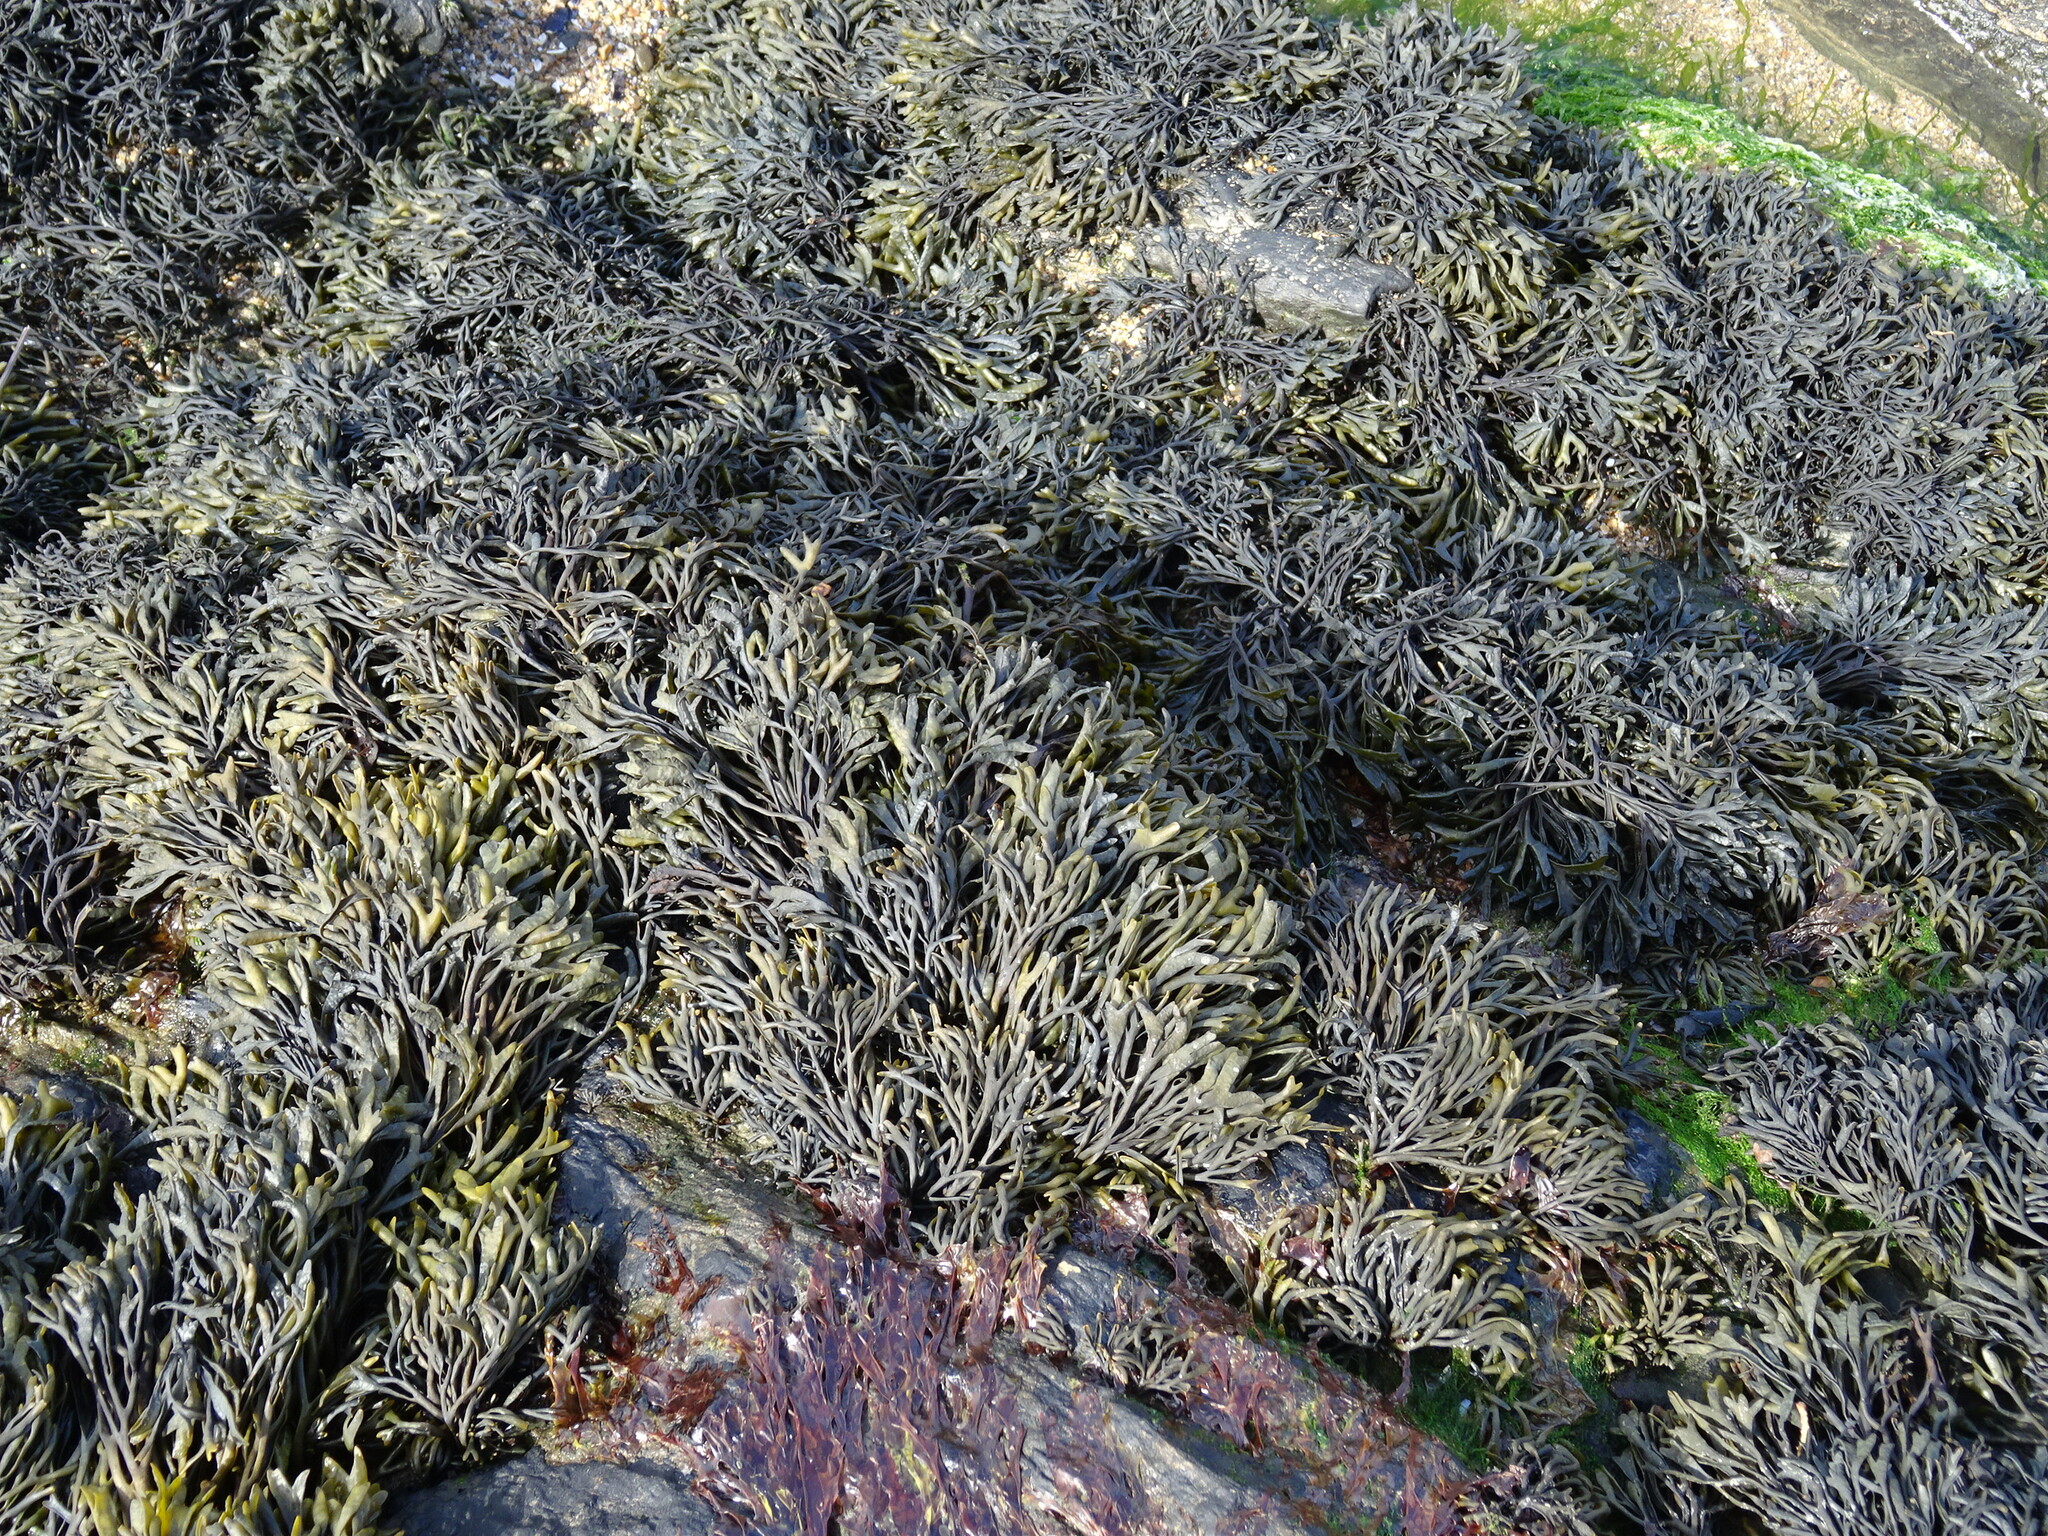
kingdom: Chromista
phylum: Ochrophyta
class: Phaeophyceae
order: Fucales
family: Fucaceae
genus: Pelvetia
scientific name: Pelvetia canaliculata
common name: Channelled wrack
